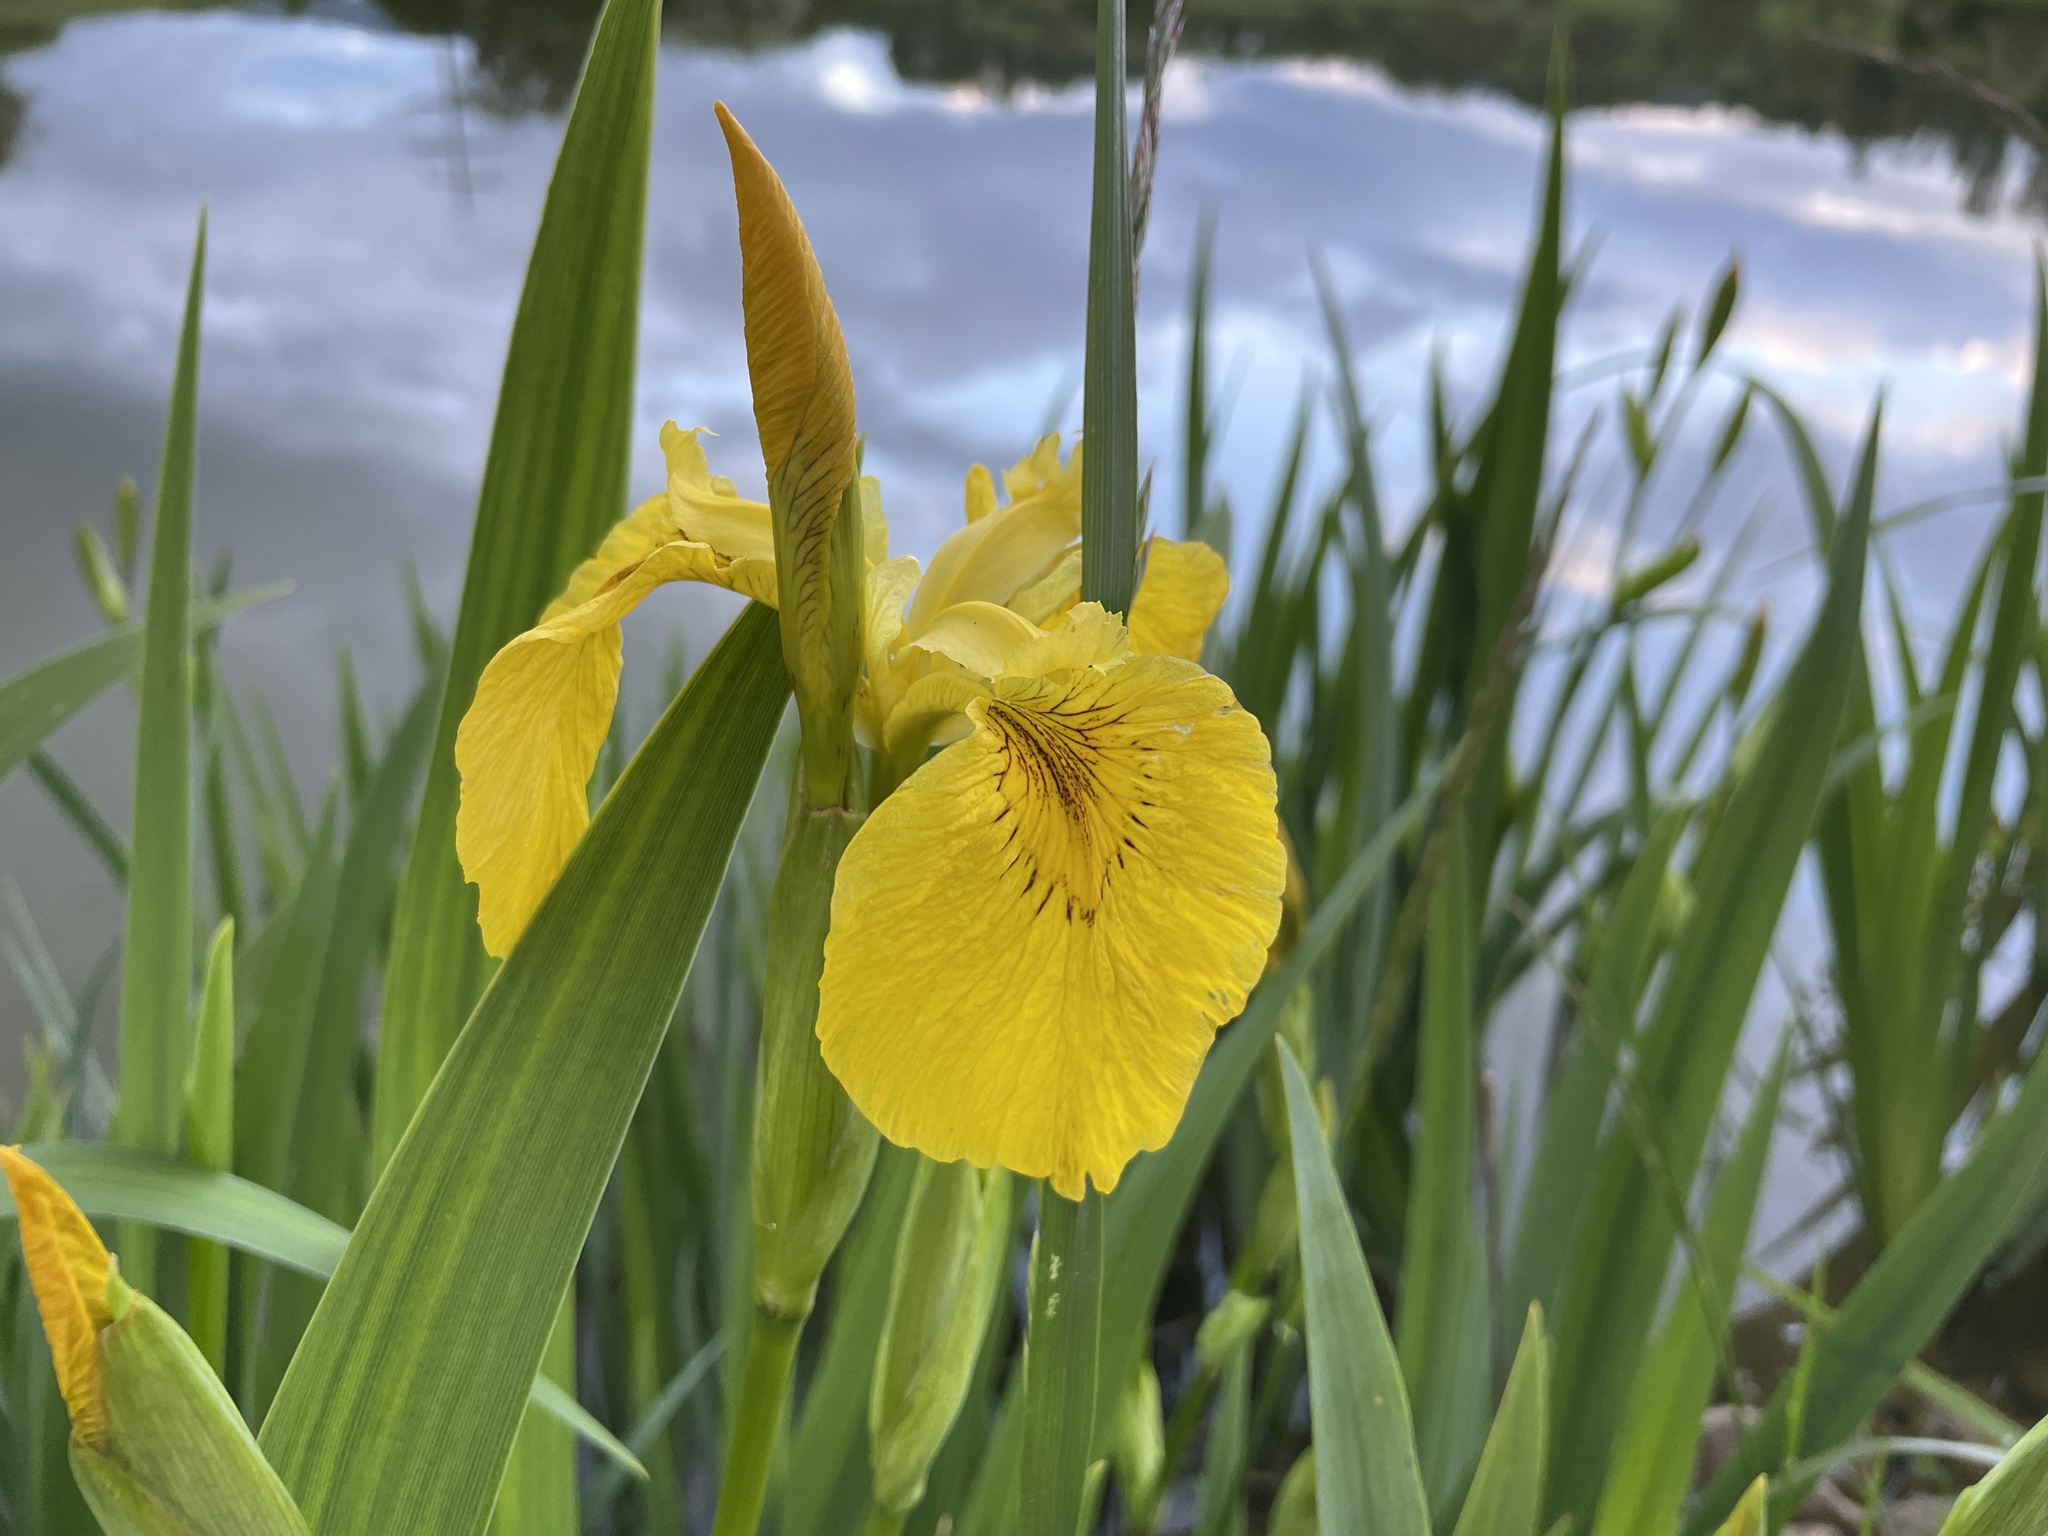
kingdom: Plantae
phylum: Tracheophyta
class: Liliopsida
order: Asparagales
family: Iridaceae
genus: Iris
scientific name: Iris pseudacorus
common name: Yellow flag
